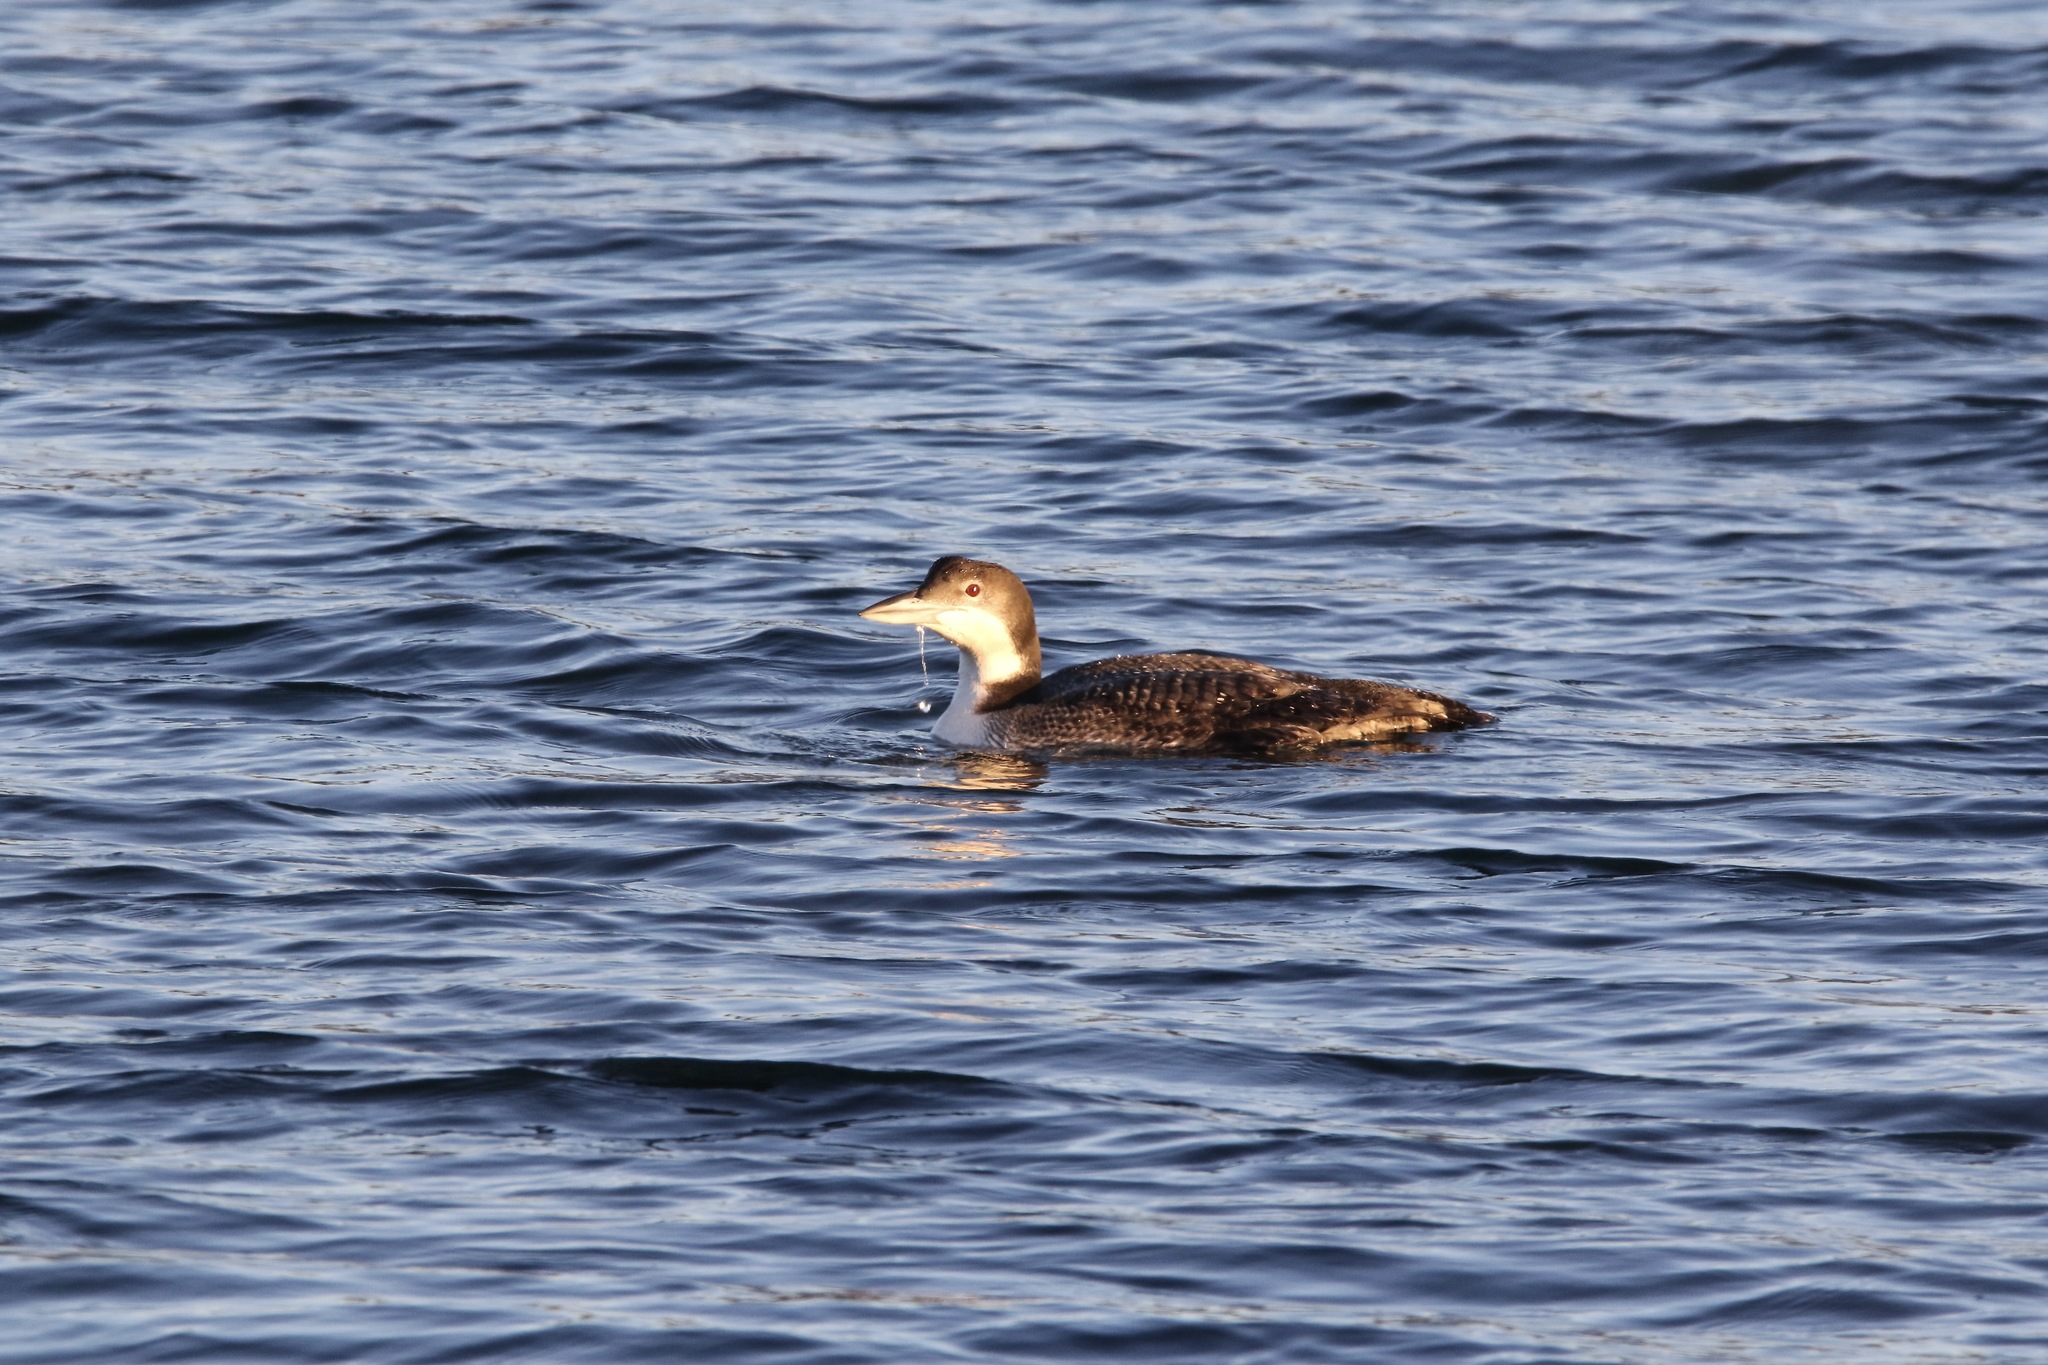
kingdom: Animalia
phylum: Chordata
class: Aves
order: Gaviiformes
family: Gaviidae
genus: Gavia
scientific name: Gavia immer
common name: Common loon
